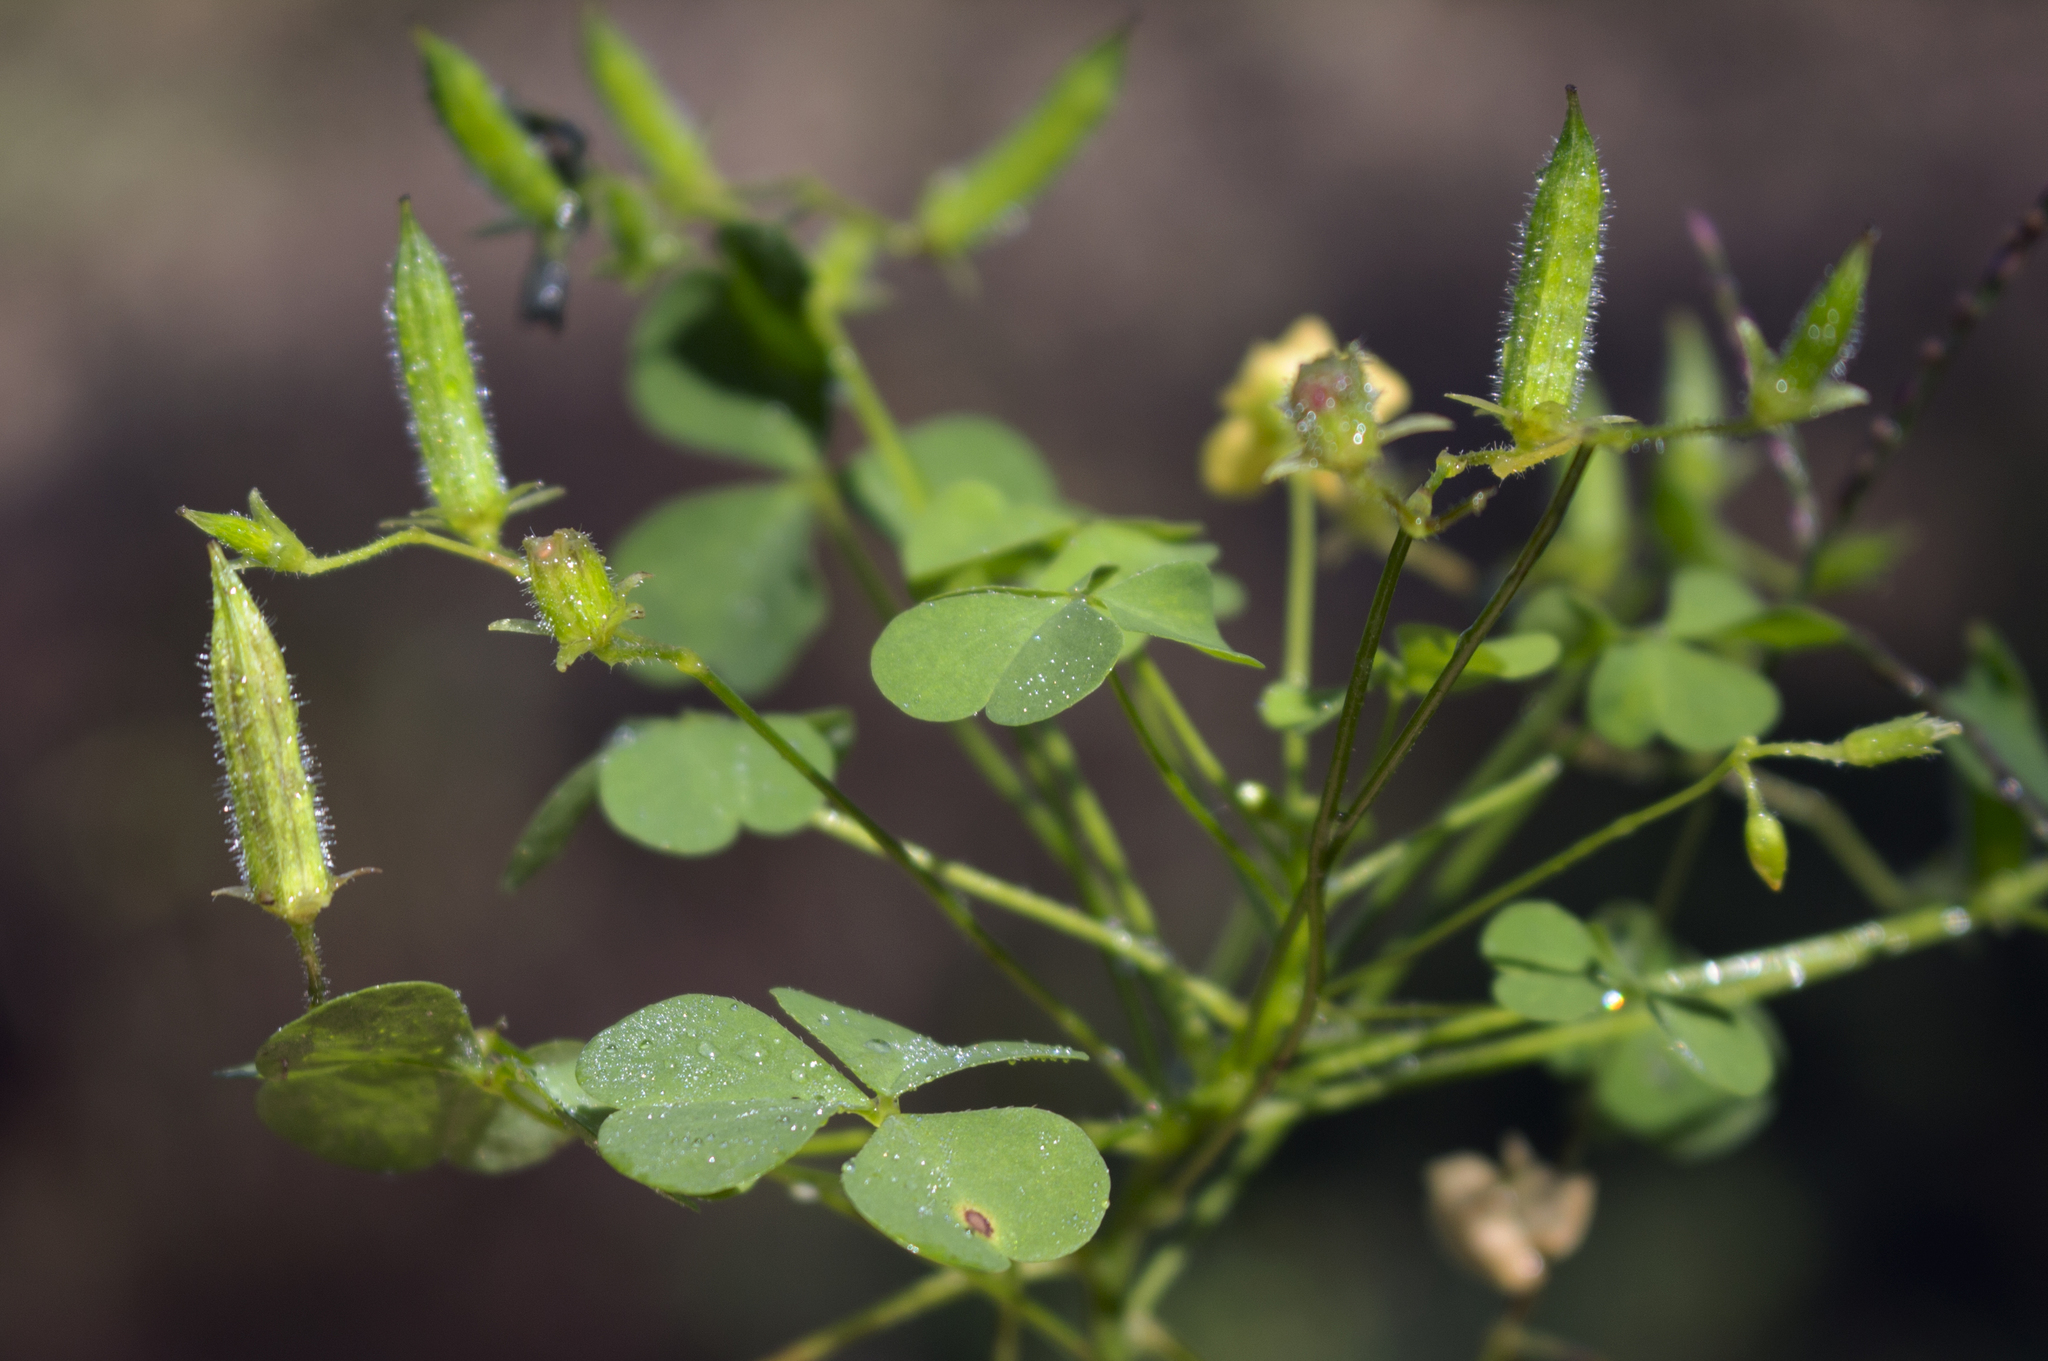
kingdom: Plantae
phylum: Tracheophyta
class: Magnoliopsida
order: Oxalidales
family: Oxalidaceae
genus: Oxalis
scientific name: Oxalis stricta
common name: Upright yellow-sorrel
